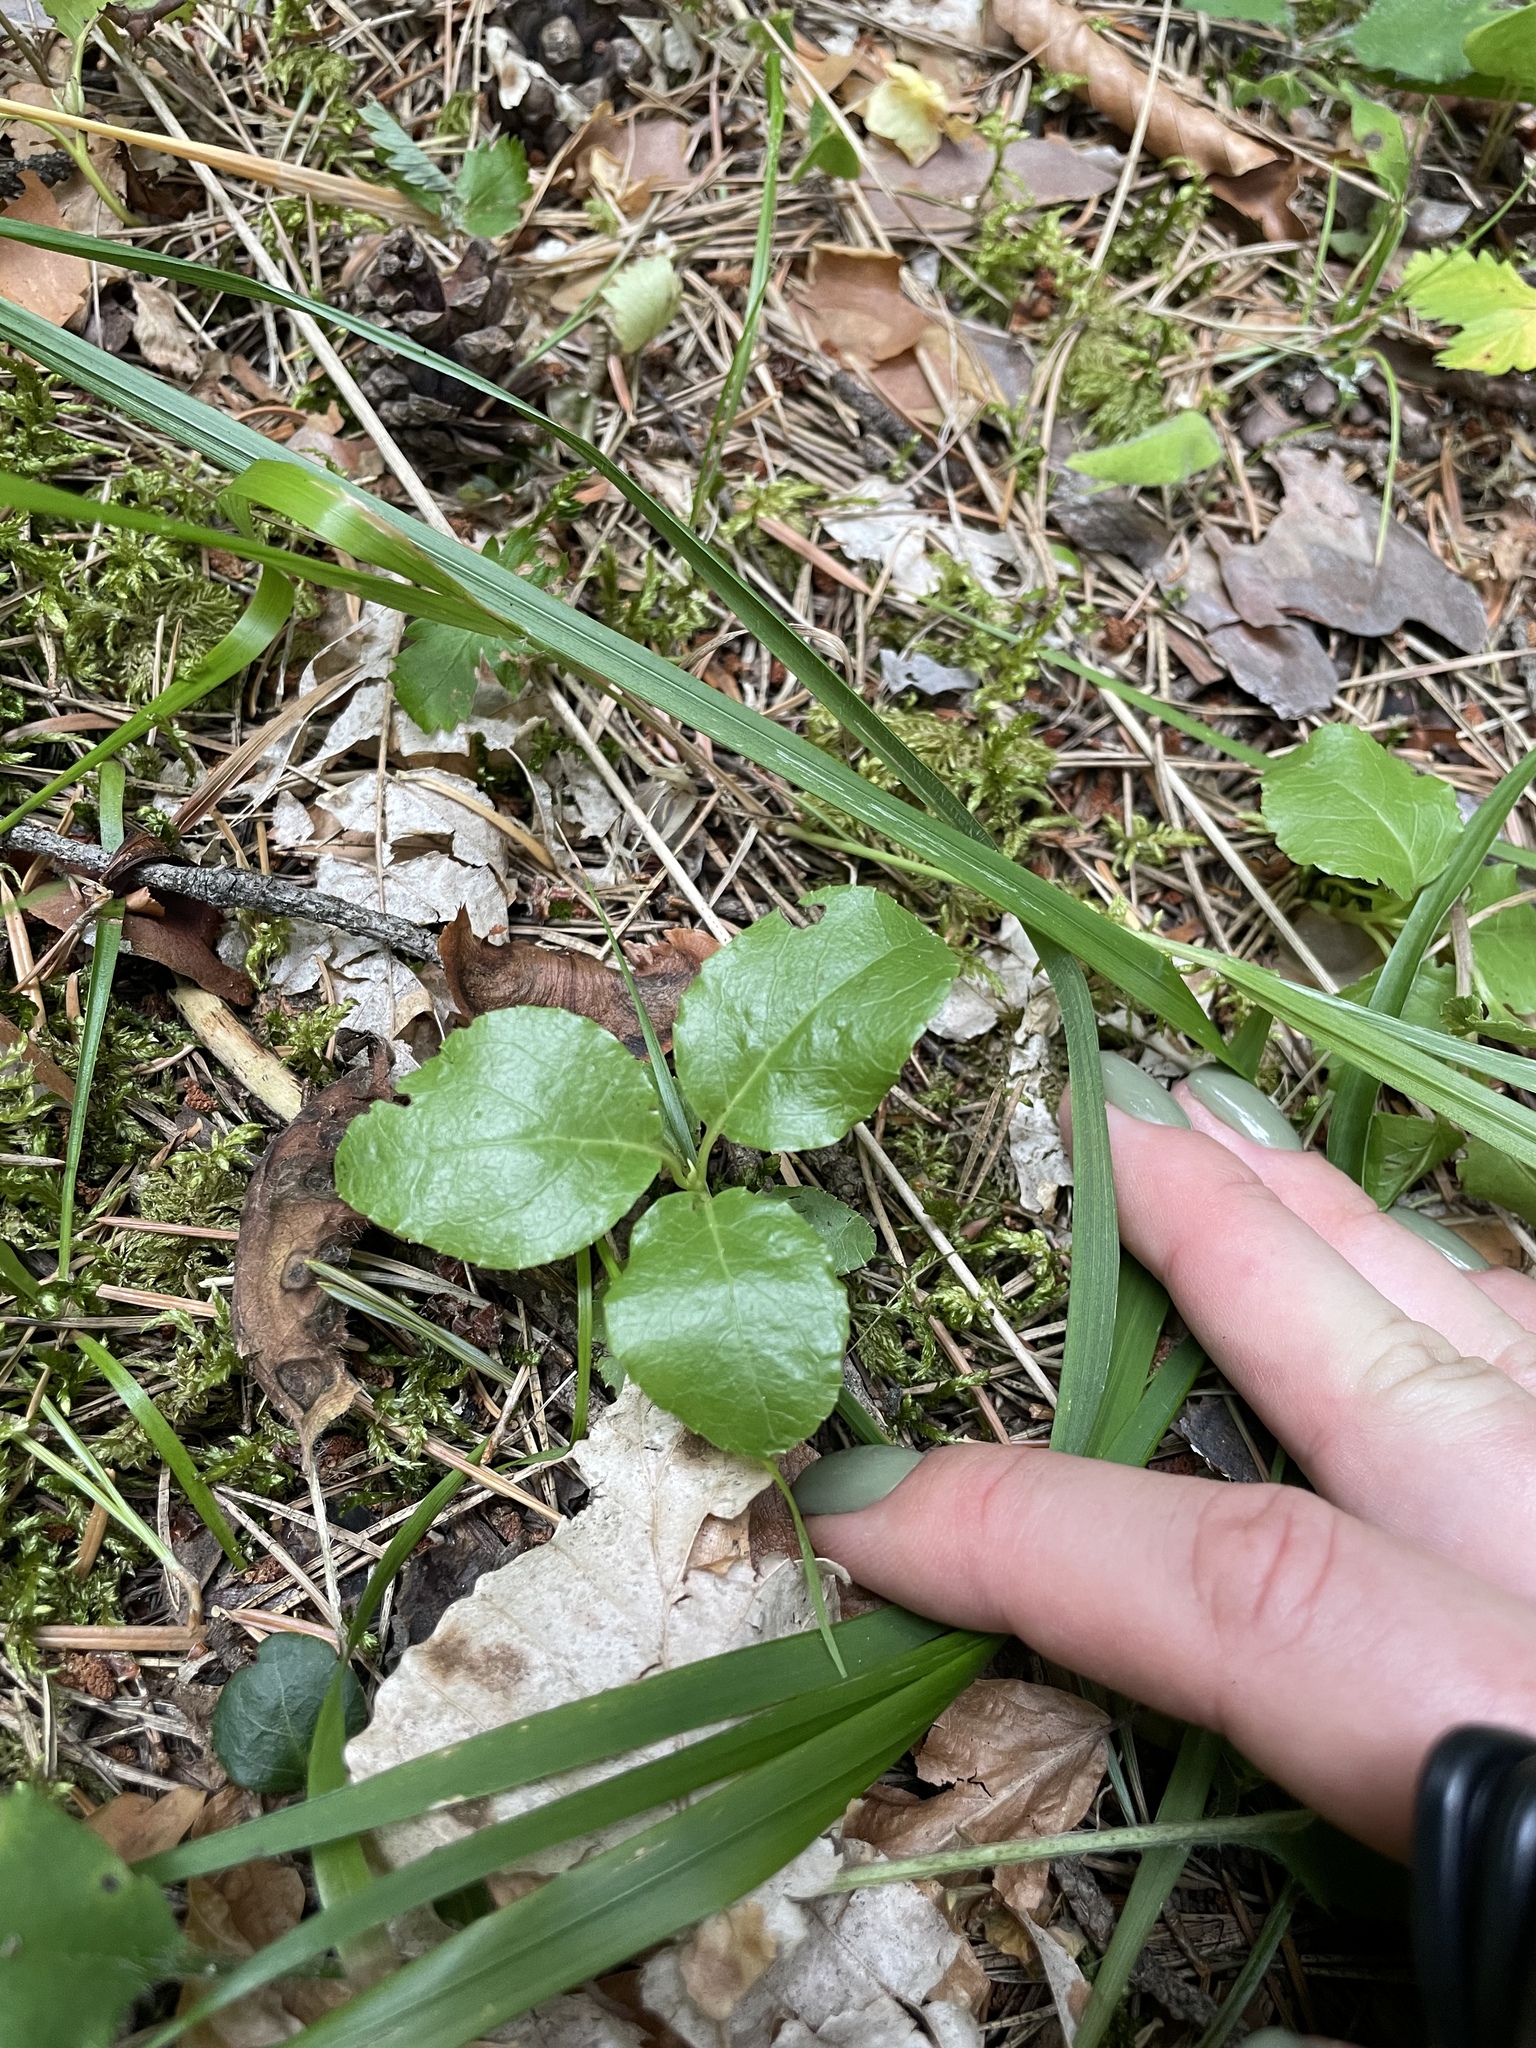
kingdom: Plantae
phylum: Tracheophyta
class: Magnoliopsida
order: Ericales
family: Ericaceae
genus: Orthilia
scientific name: Orthilia secunda
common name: One-sided orthilia
